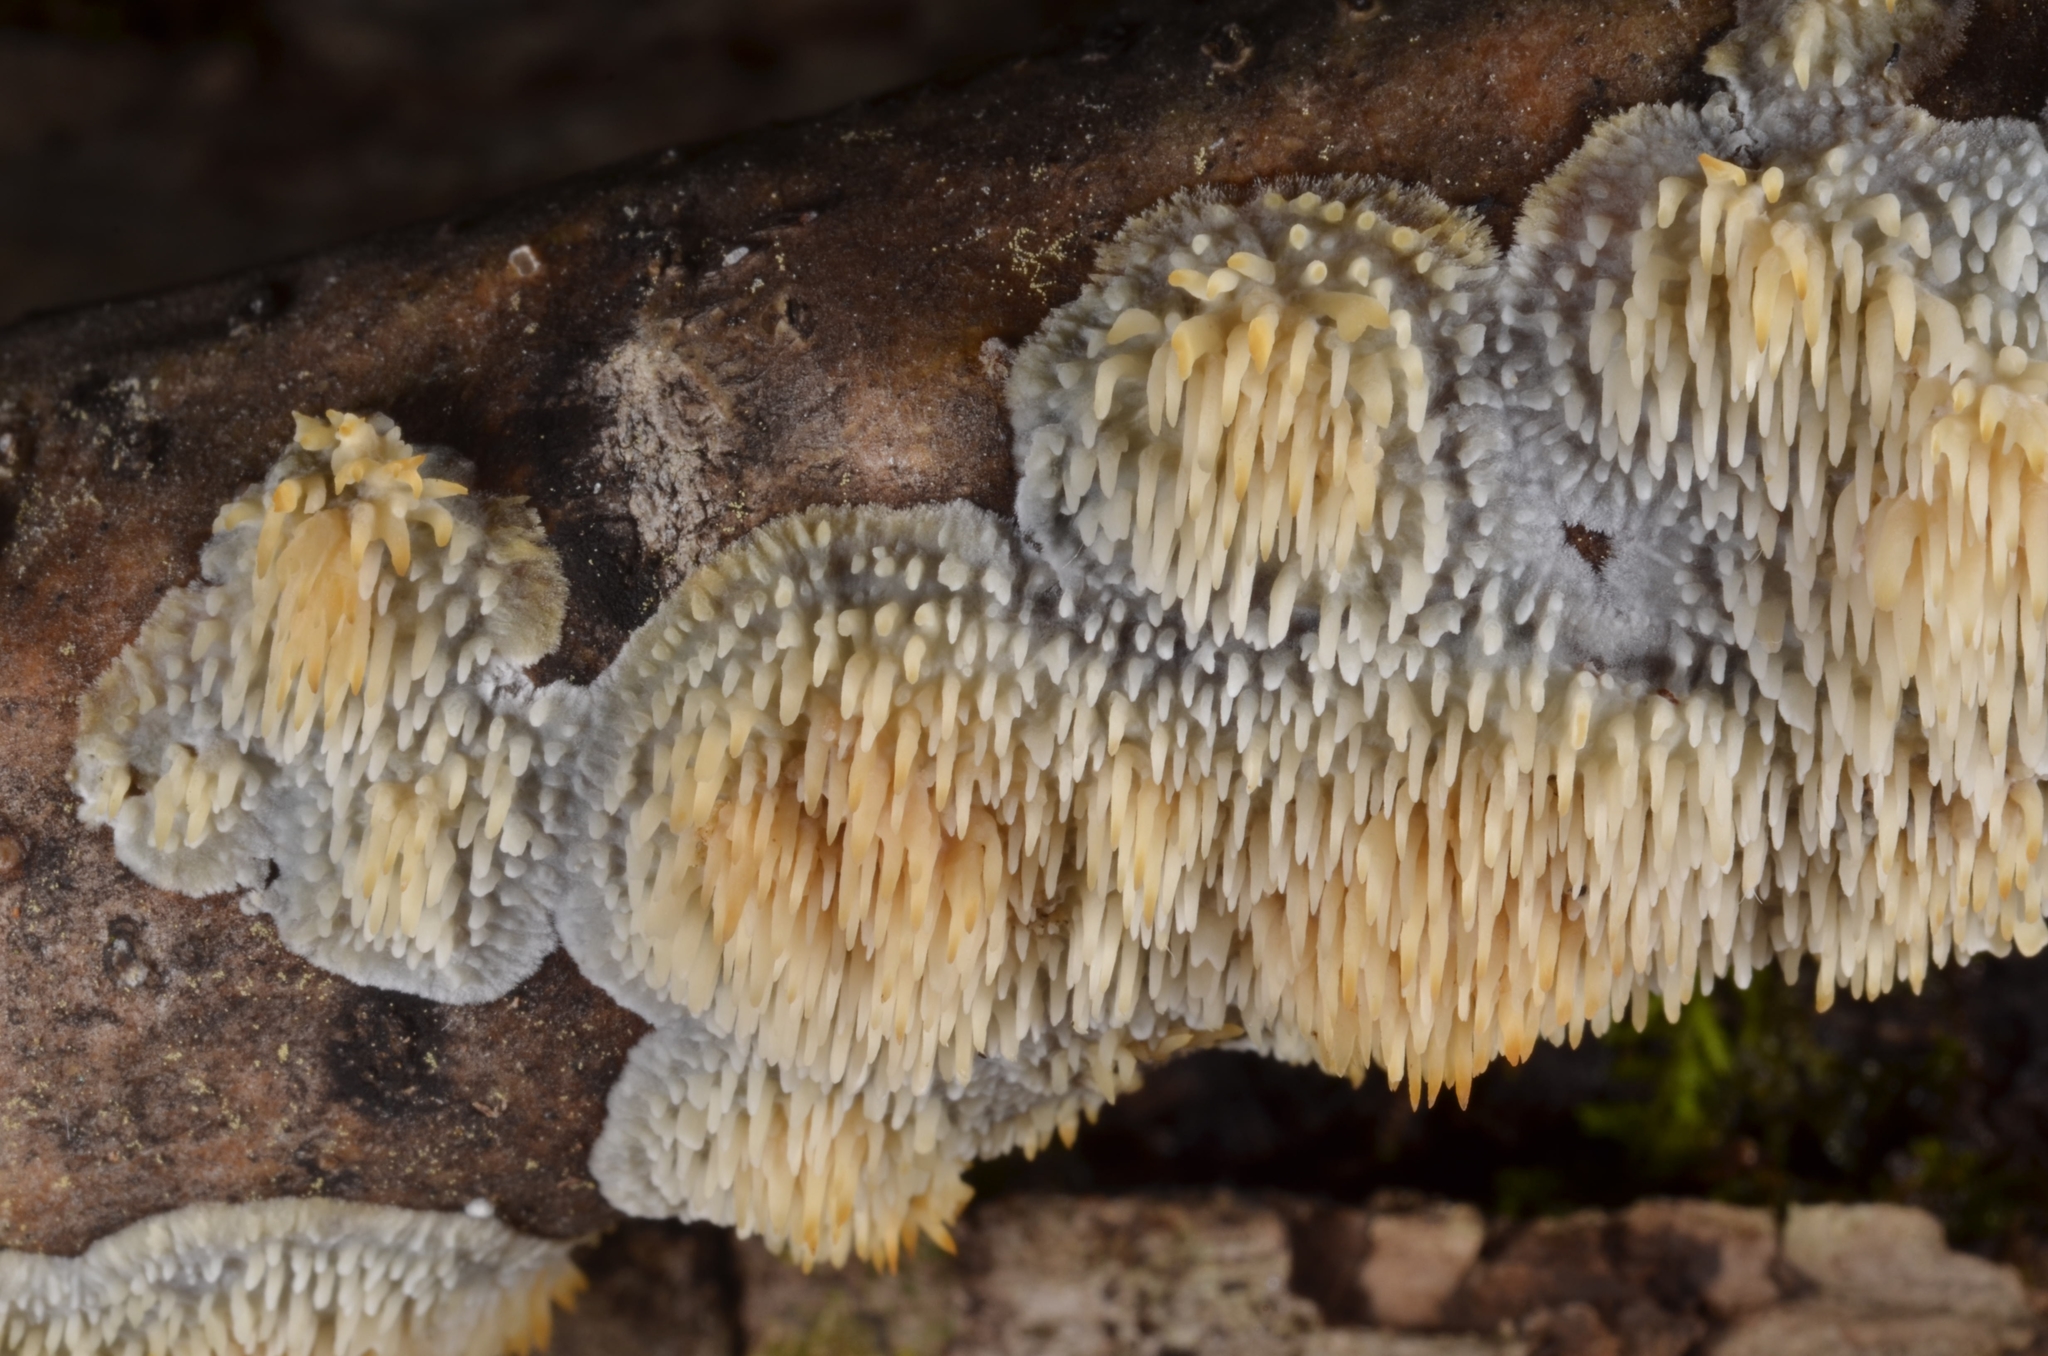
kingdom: Fungi
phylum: Basidiomycota
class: Agaricomycetes
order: Agaricales
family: Radulomycetaceae
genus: Radulomyces
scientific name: Radulomyces copelandii
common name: Asian beauty
